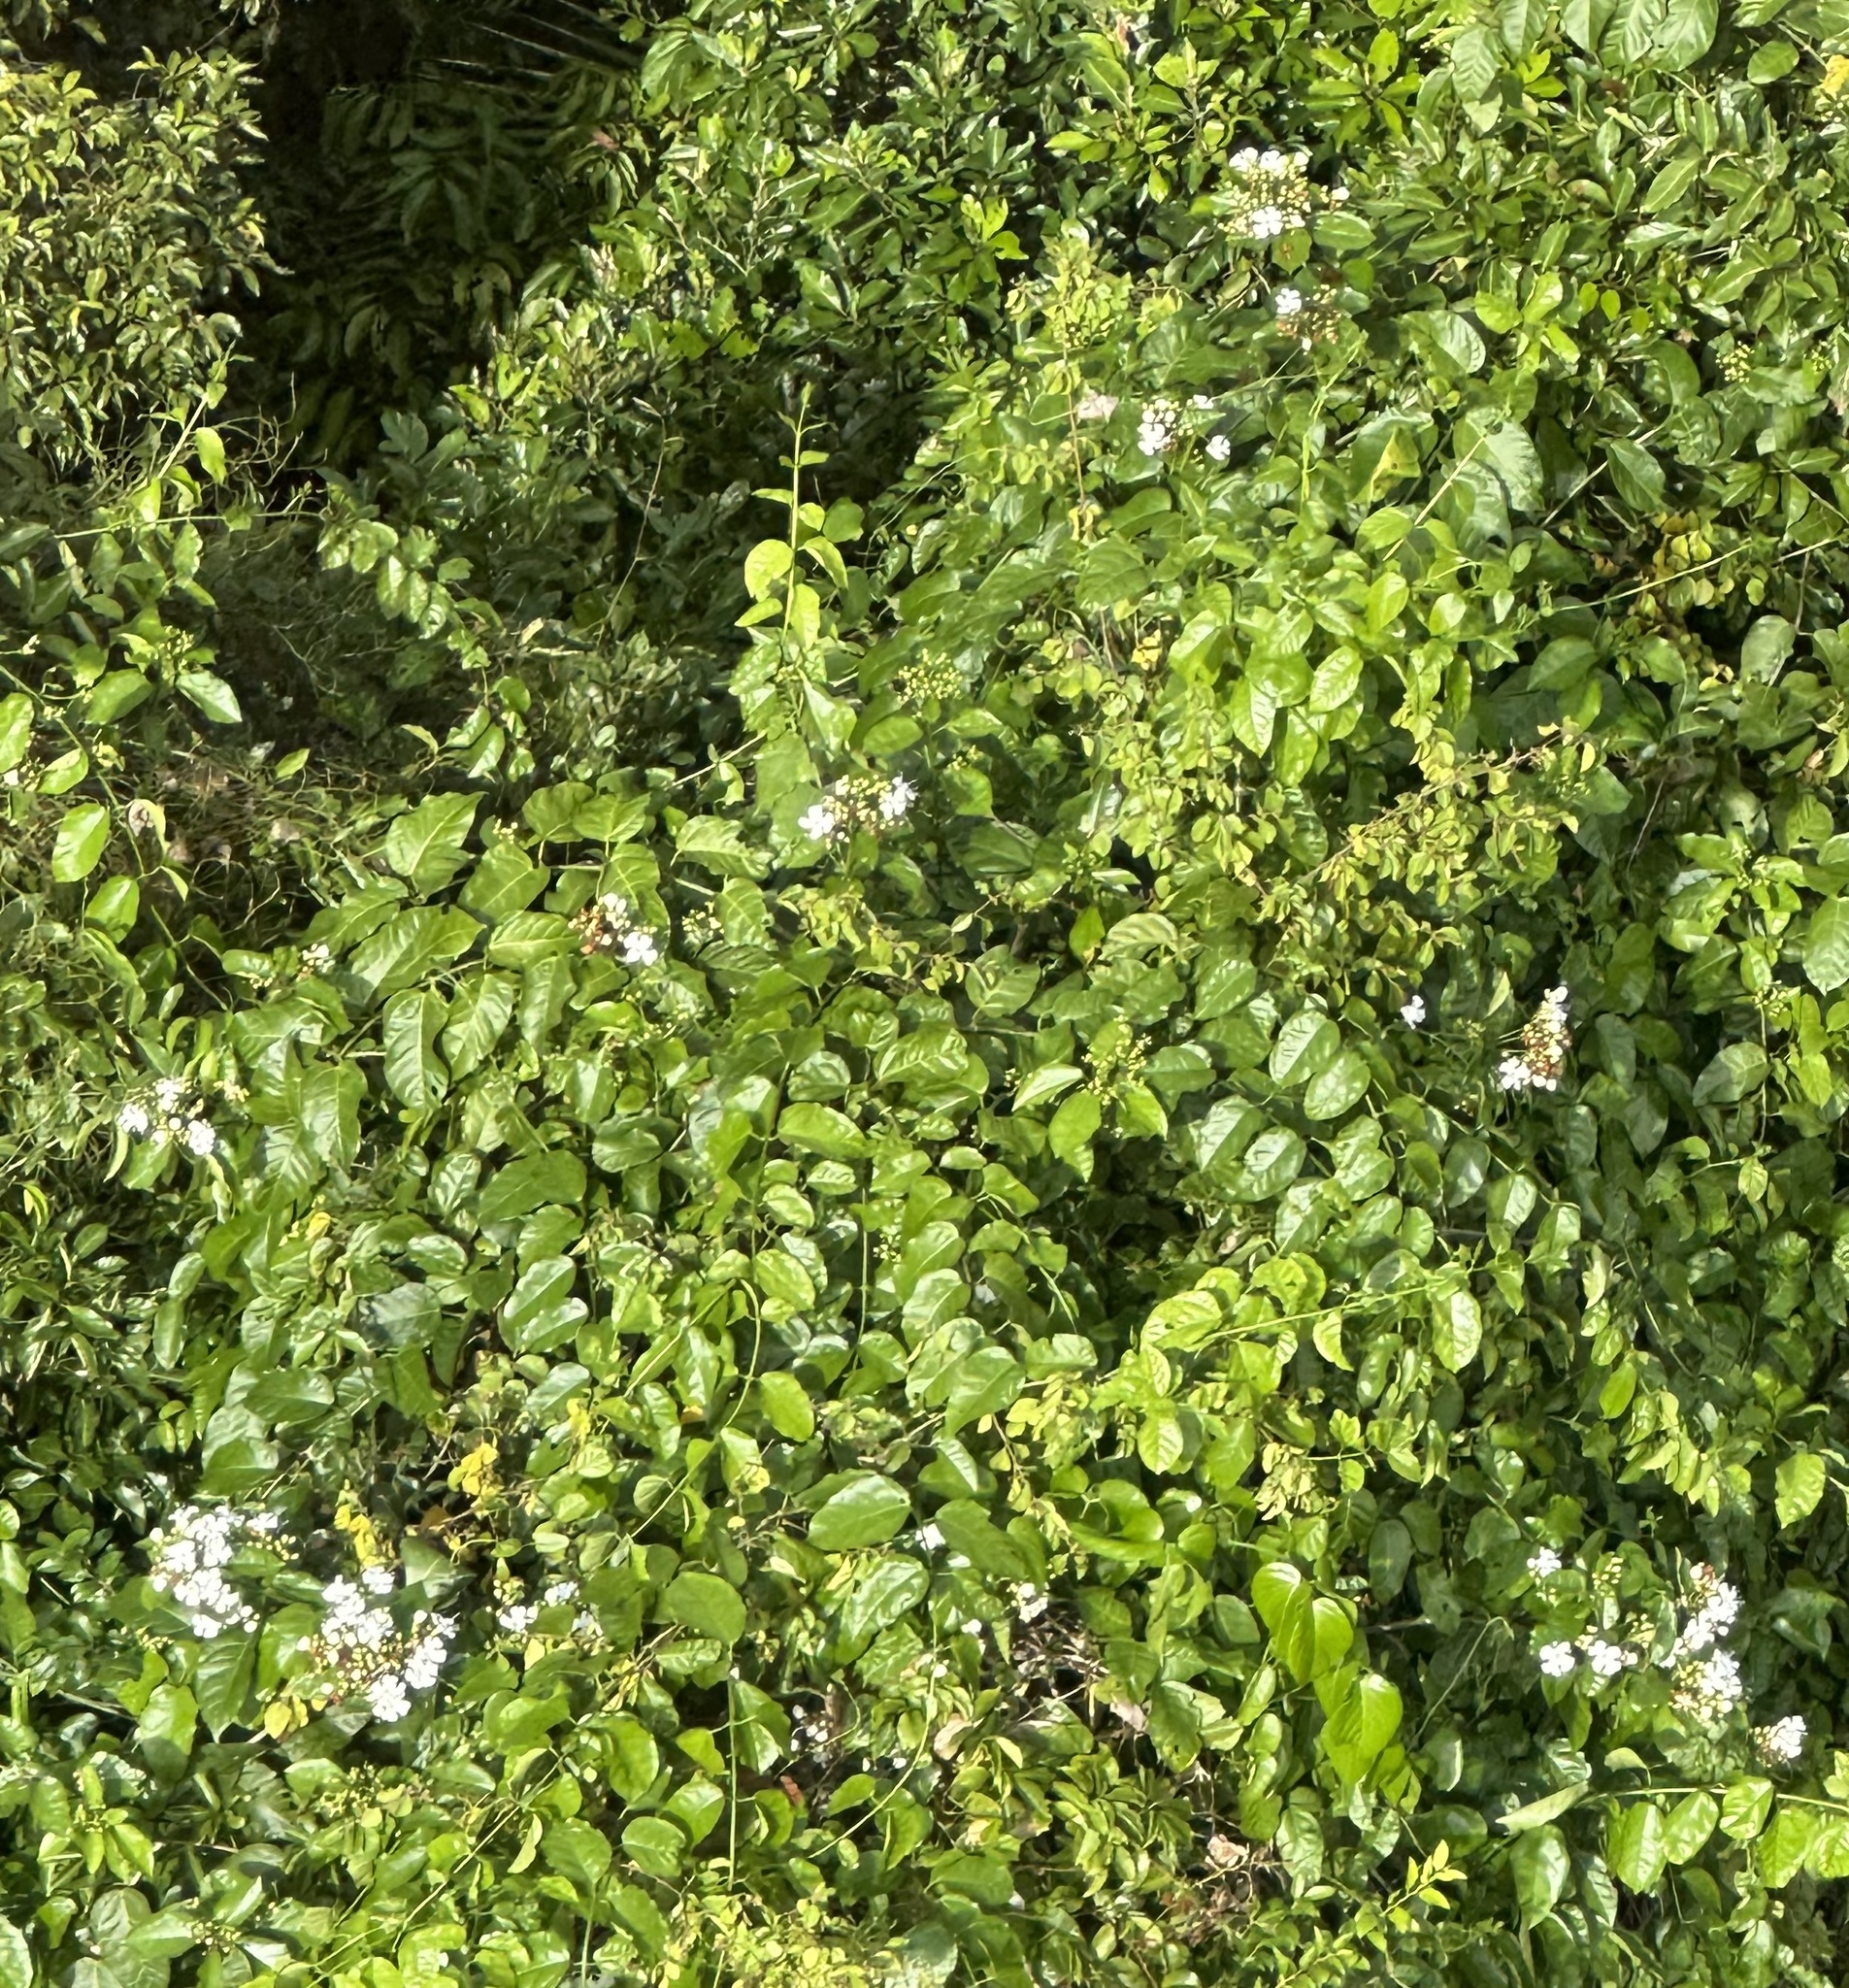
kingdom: Plantae
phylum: Tracheophyta
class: Magnoliopsida
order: Lamiales
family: Lamiaceae
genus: Oxera
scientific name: Oxera splendida
